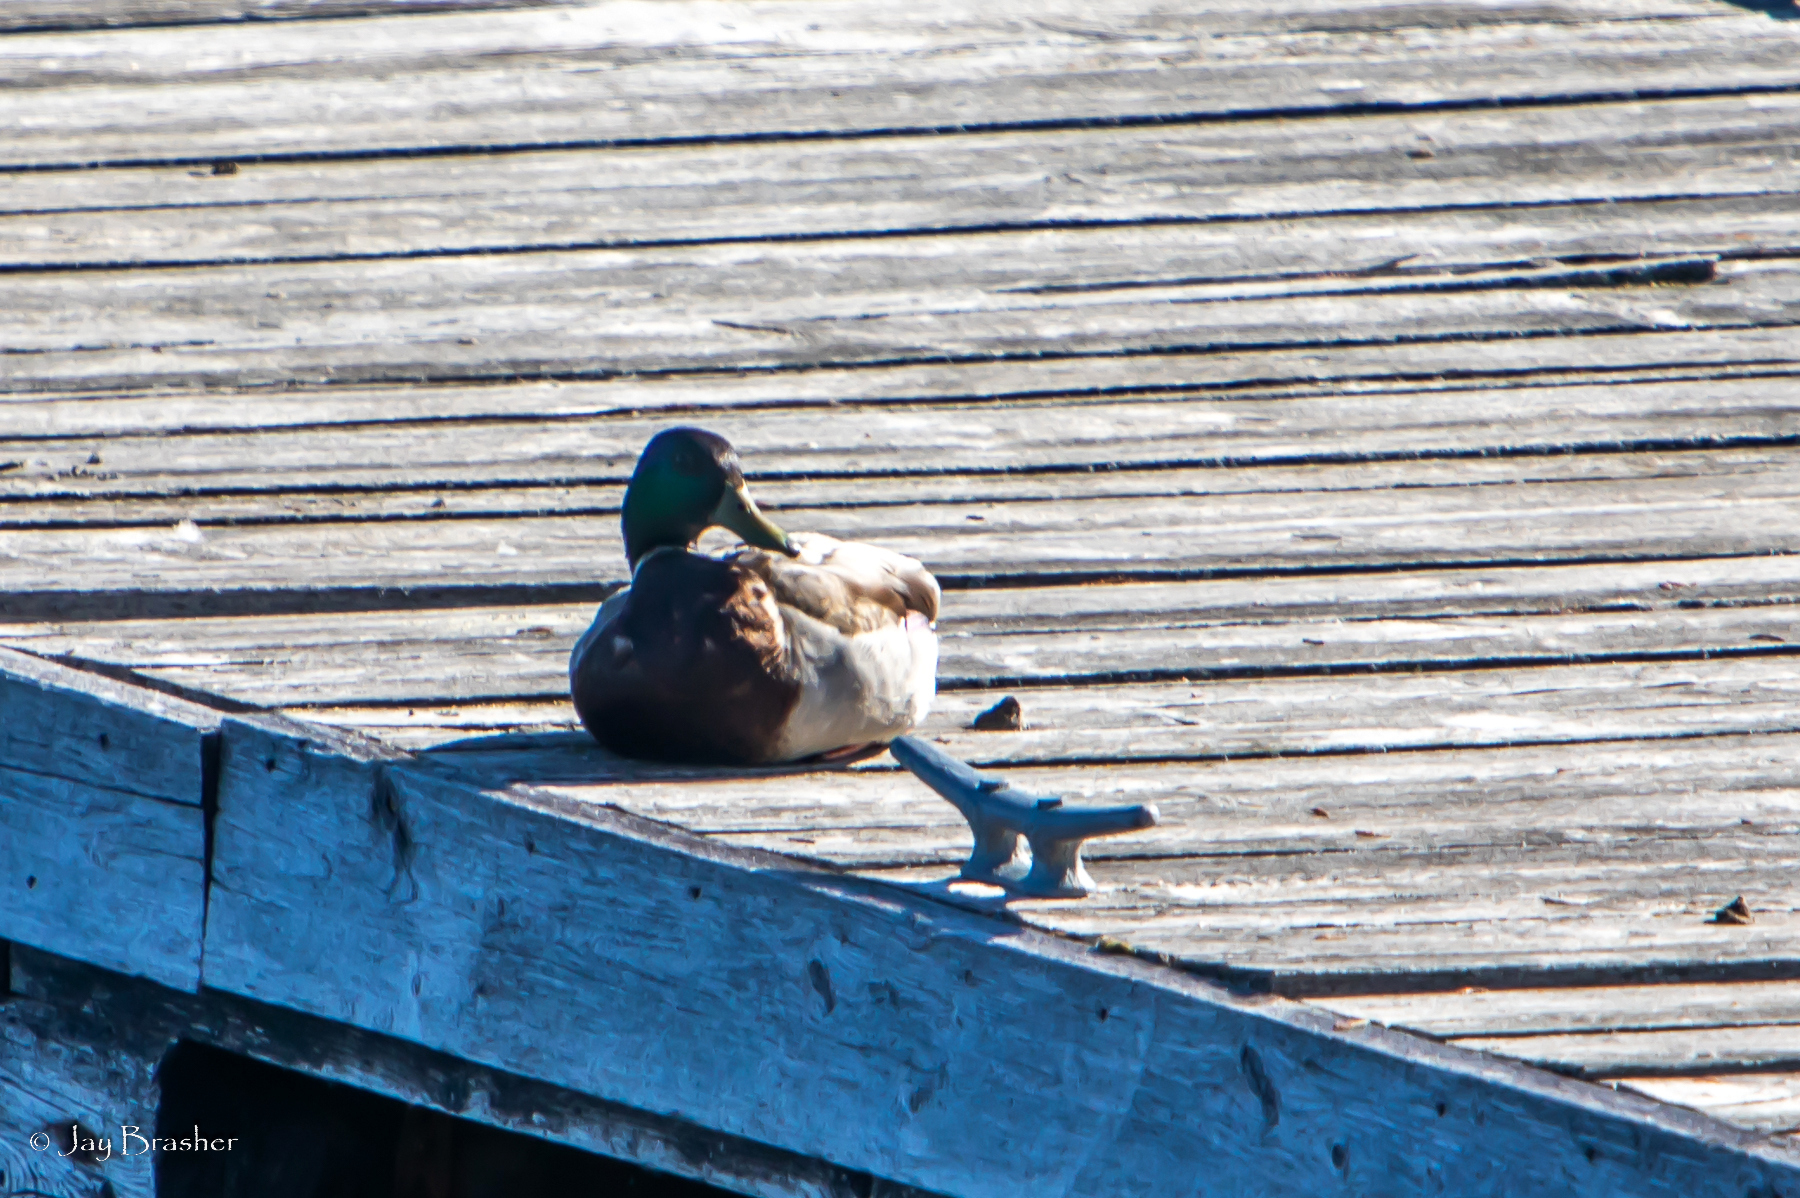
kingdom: Animalia
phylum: Chordata
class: Aves
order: Anseriformes
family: Anatidae
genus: Anas
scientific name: Anas platyrhynchos
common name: Mallard
